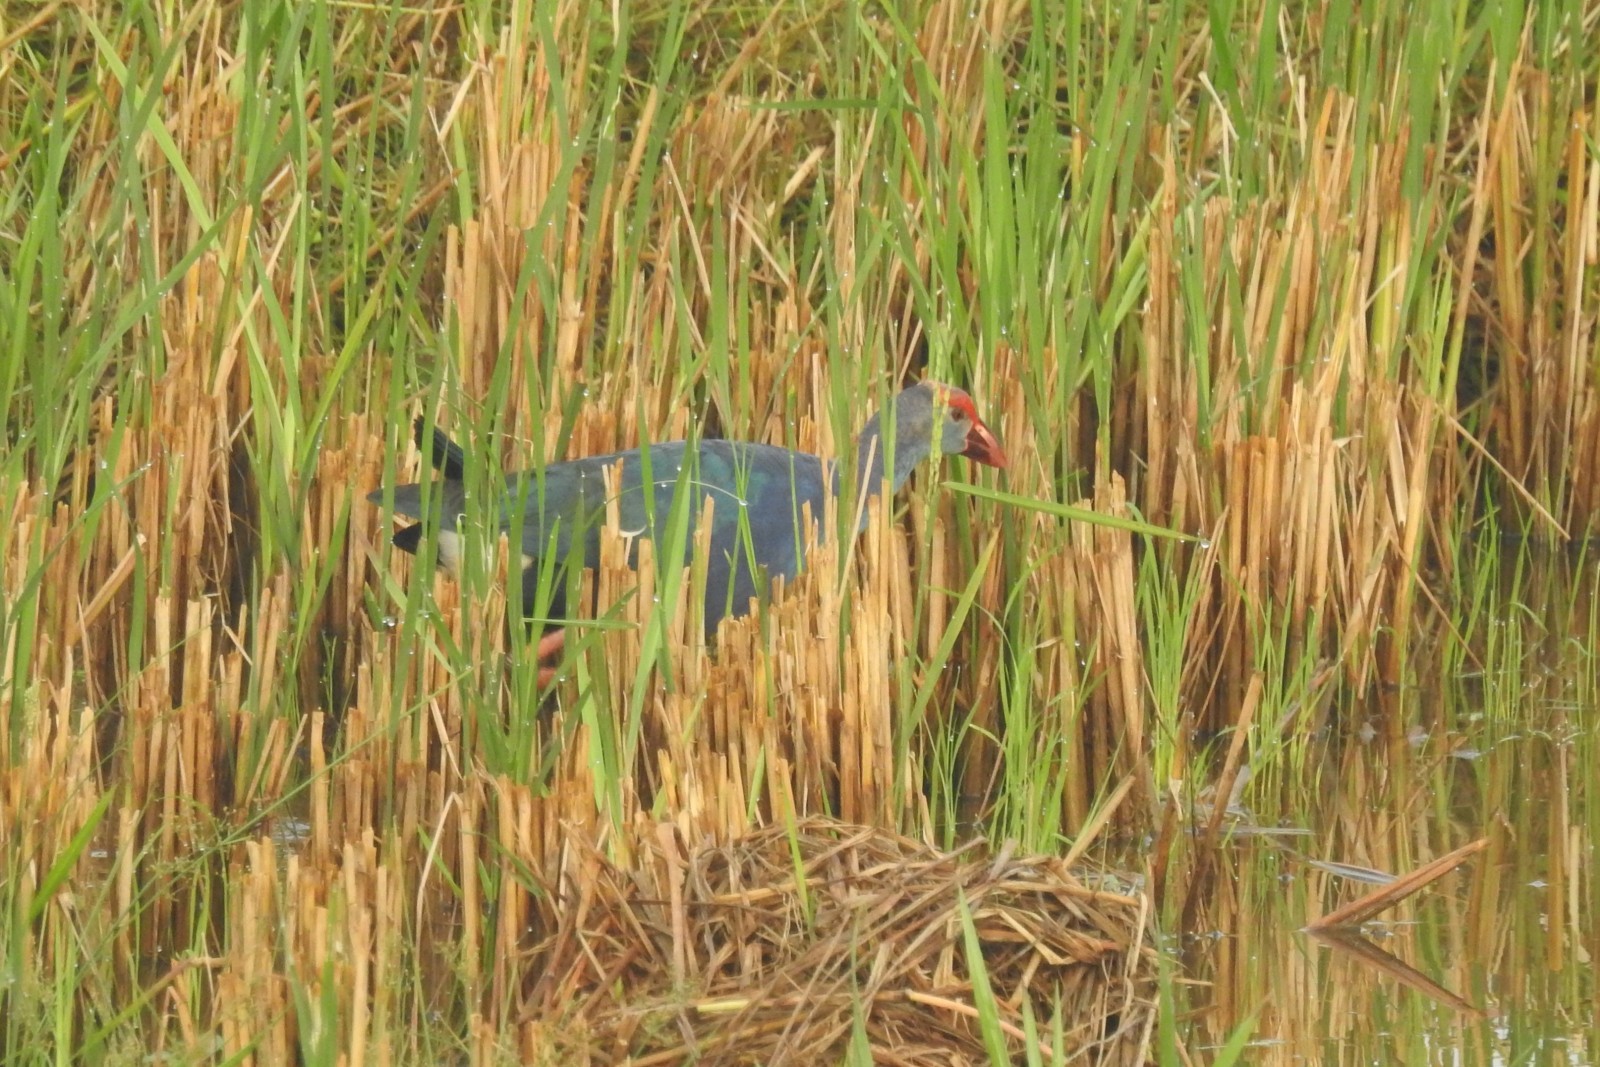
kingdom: Animalia
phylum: Chordata
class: Aves
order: Gruiformes
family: Rallidae
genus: Porphyrio
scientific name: Porphyrio porphyrio
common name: Purple swamphen
